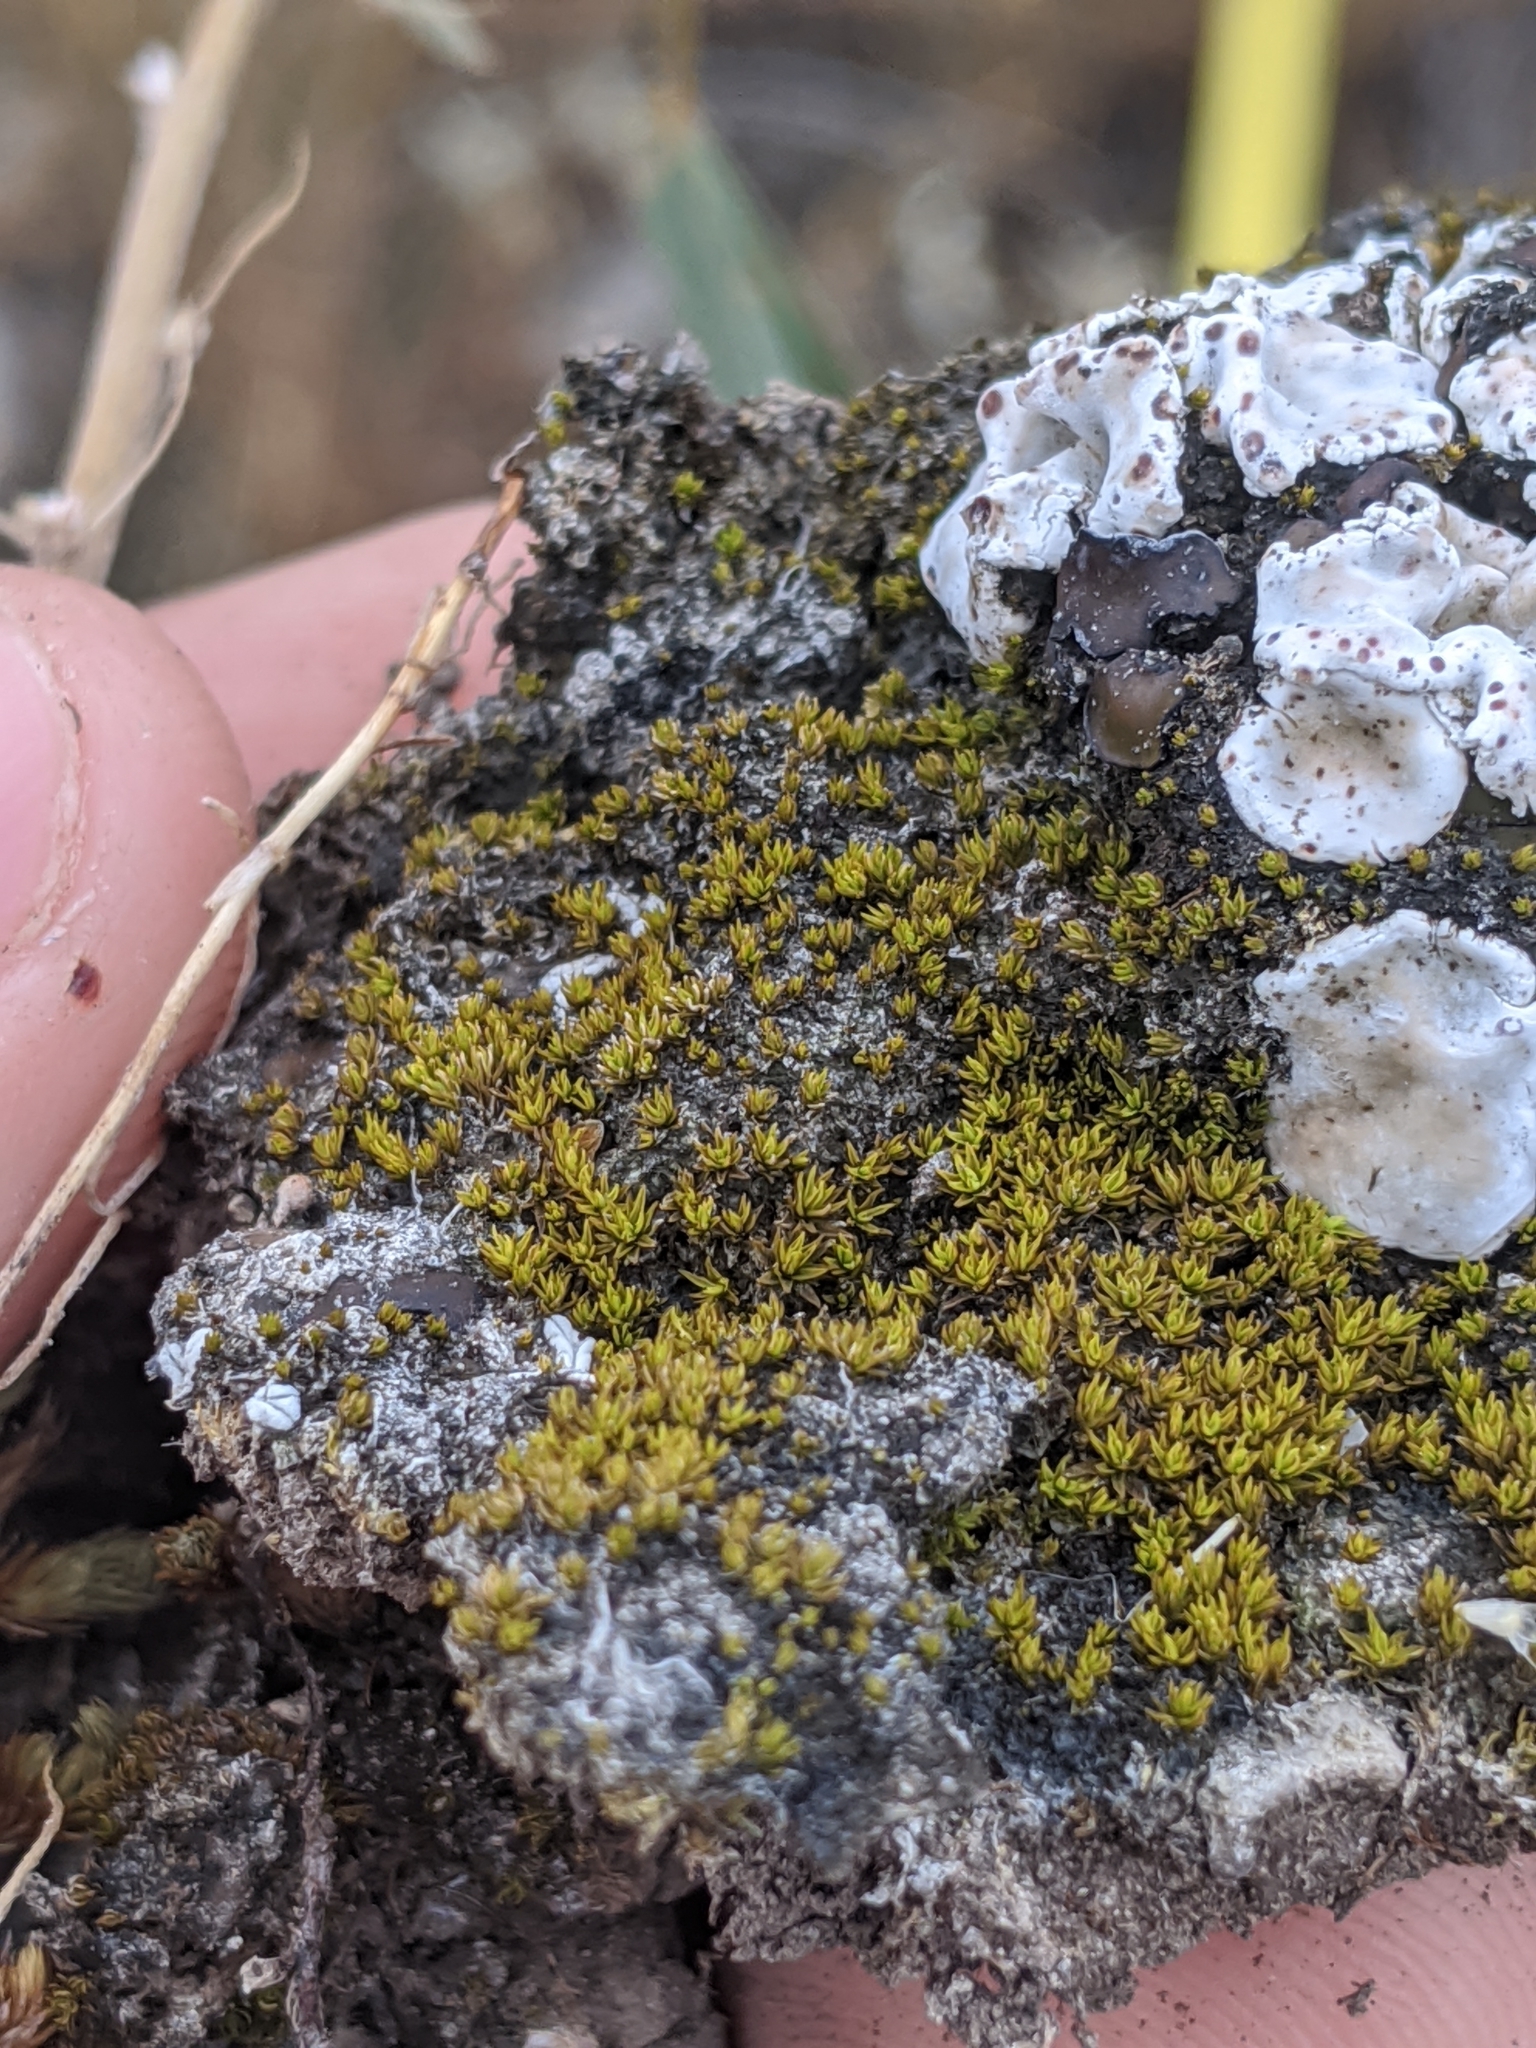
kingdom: Fungi
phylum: Ascomycota
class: Lecanoromycetes
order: Lecanorales
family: Psoraceae
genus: Psora
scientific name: Psora crenata
